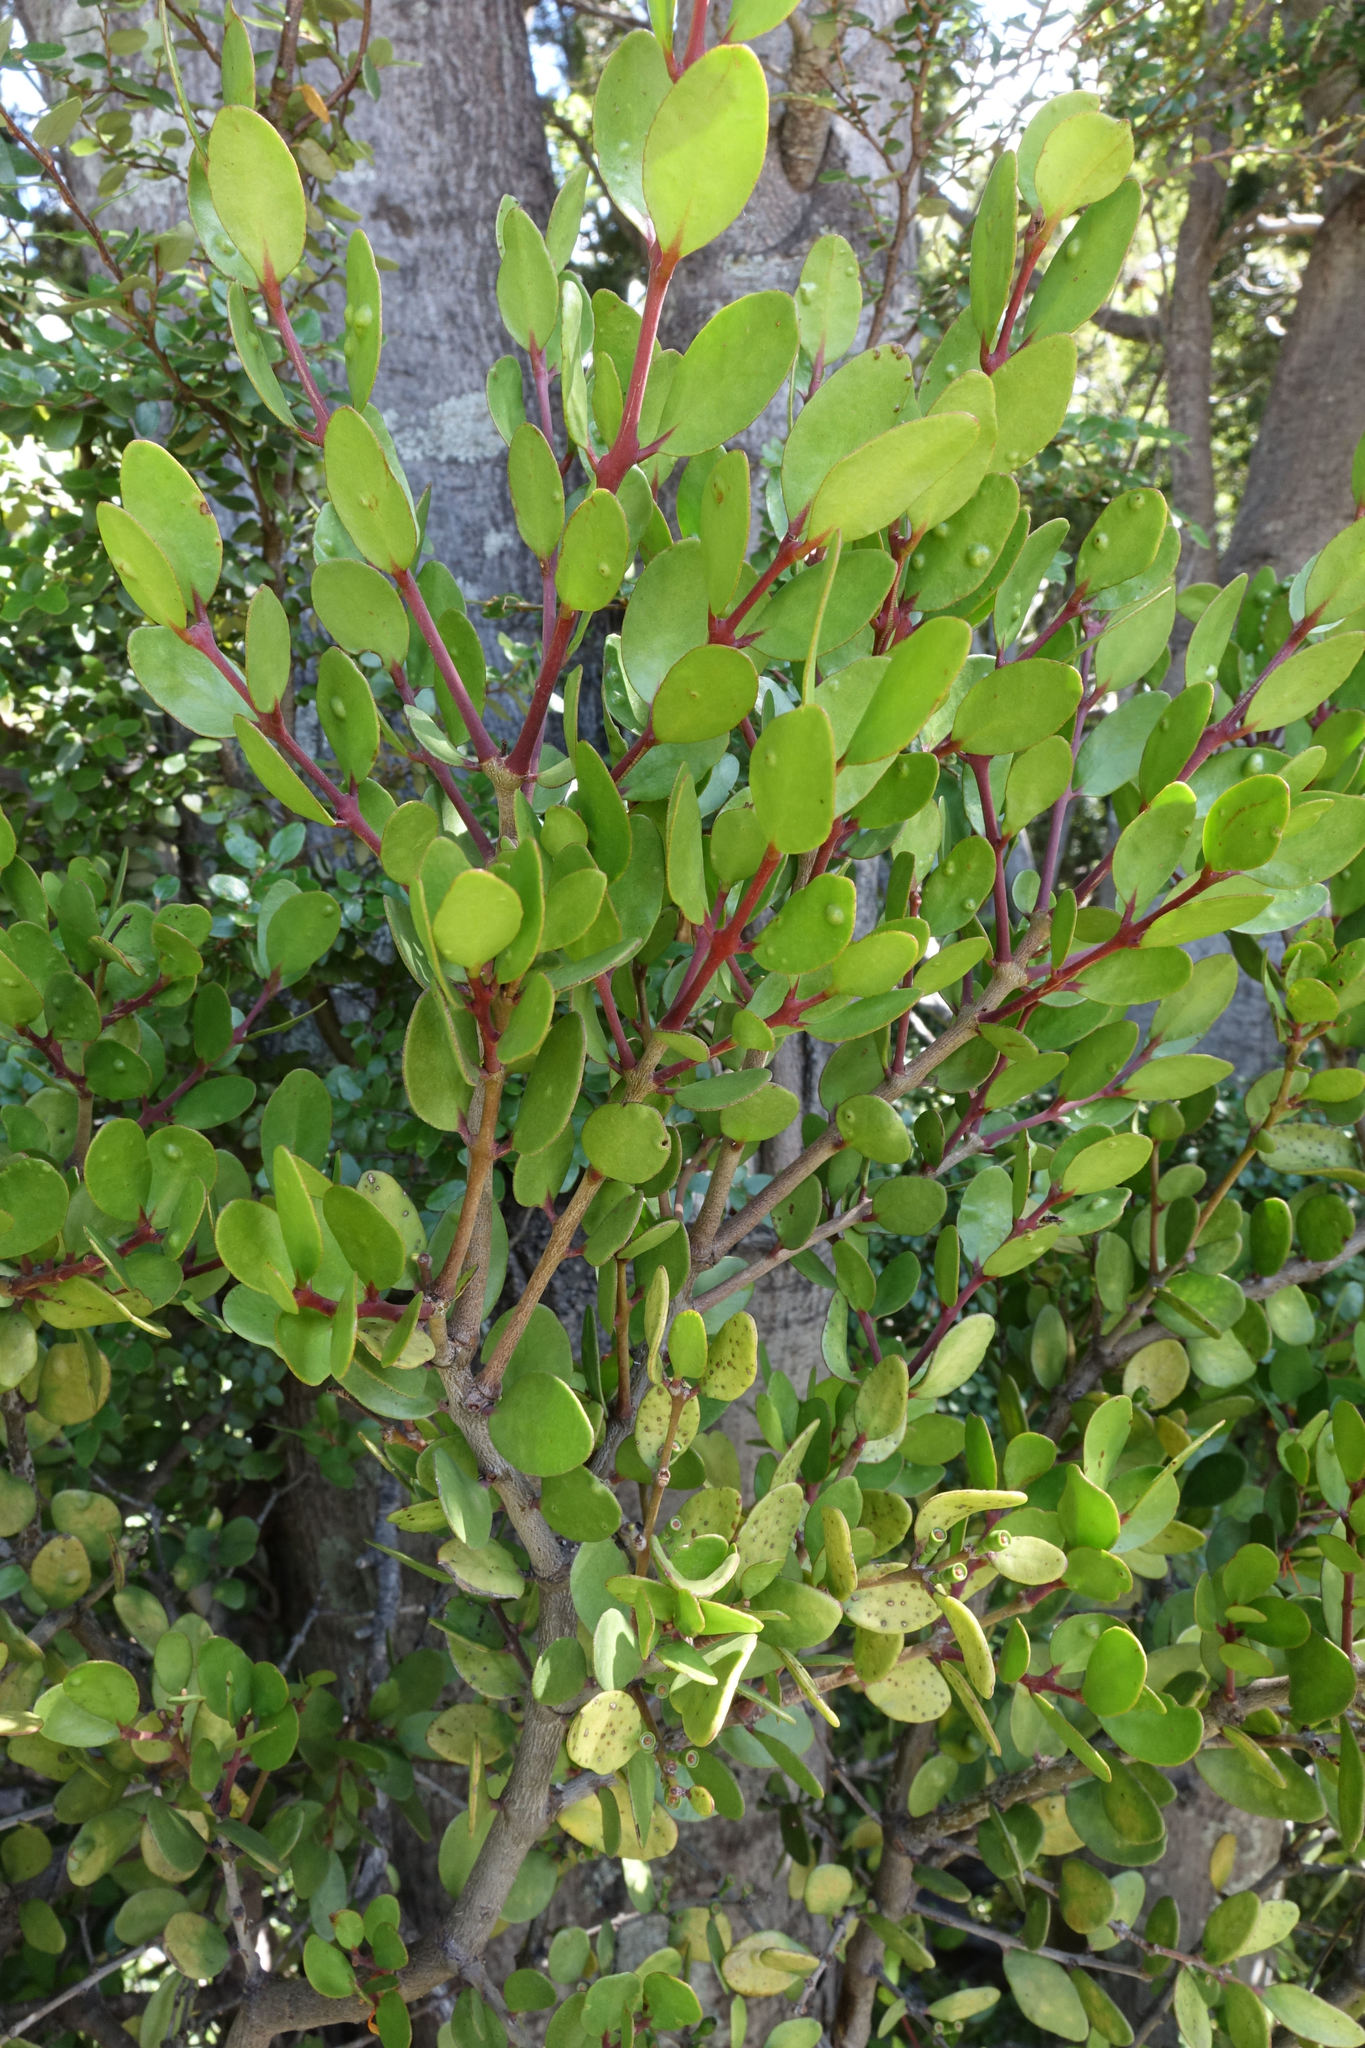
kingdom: Plantae
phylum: Tracheophyta
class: Magnoliopsida
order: Santalales
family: Loranthaceae
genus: Peraxilla
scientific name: Peraxilla tetrapetala
